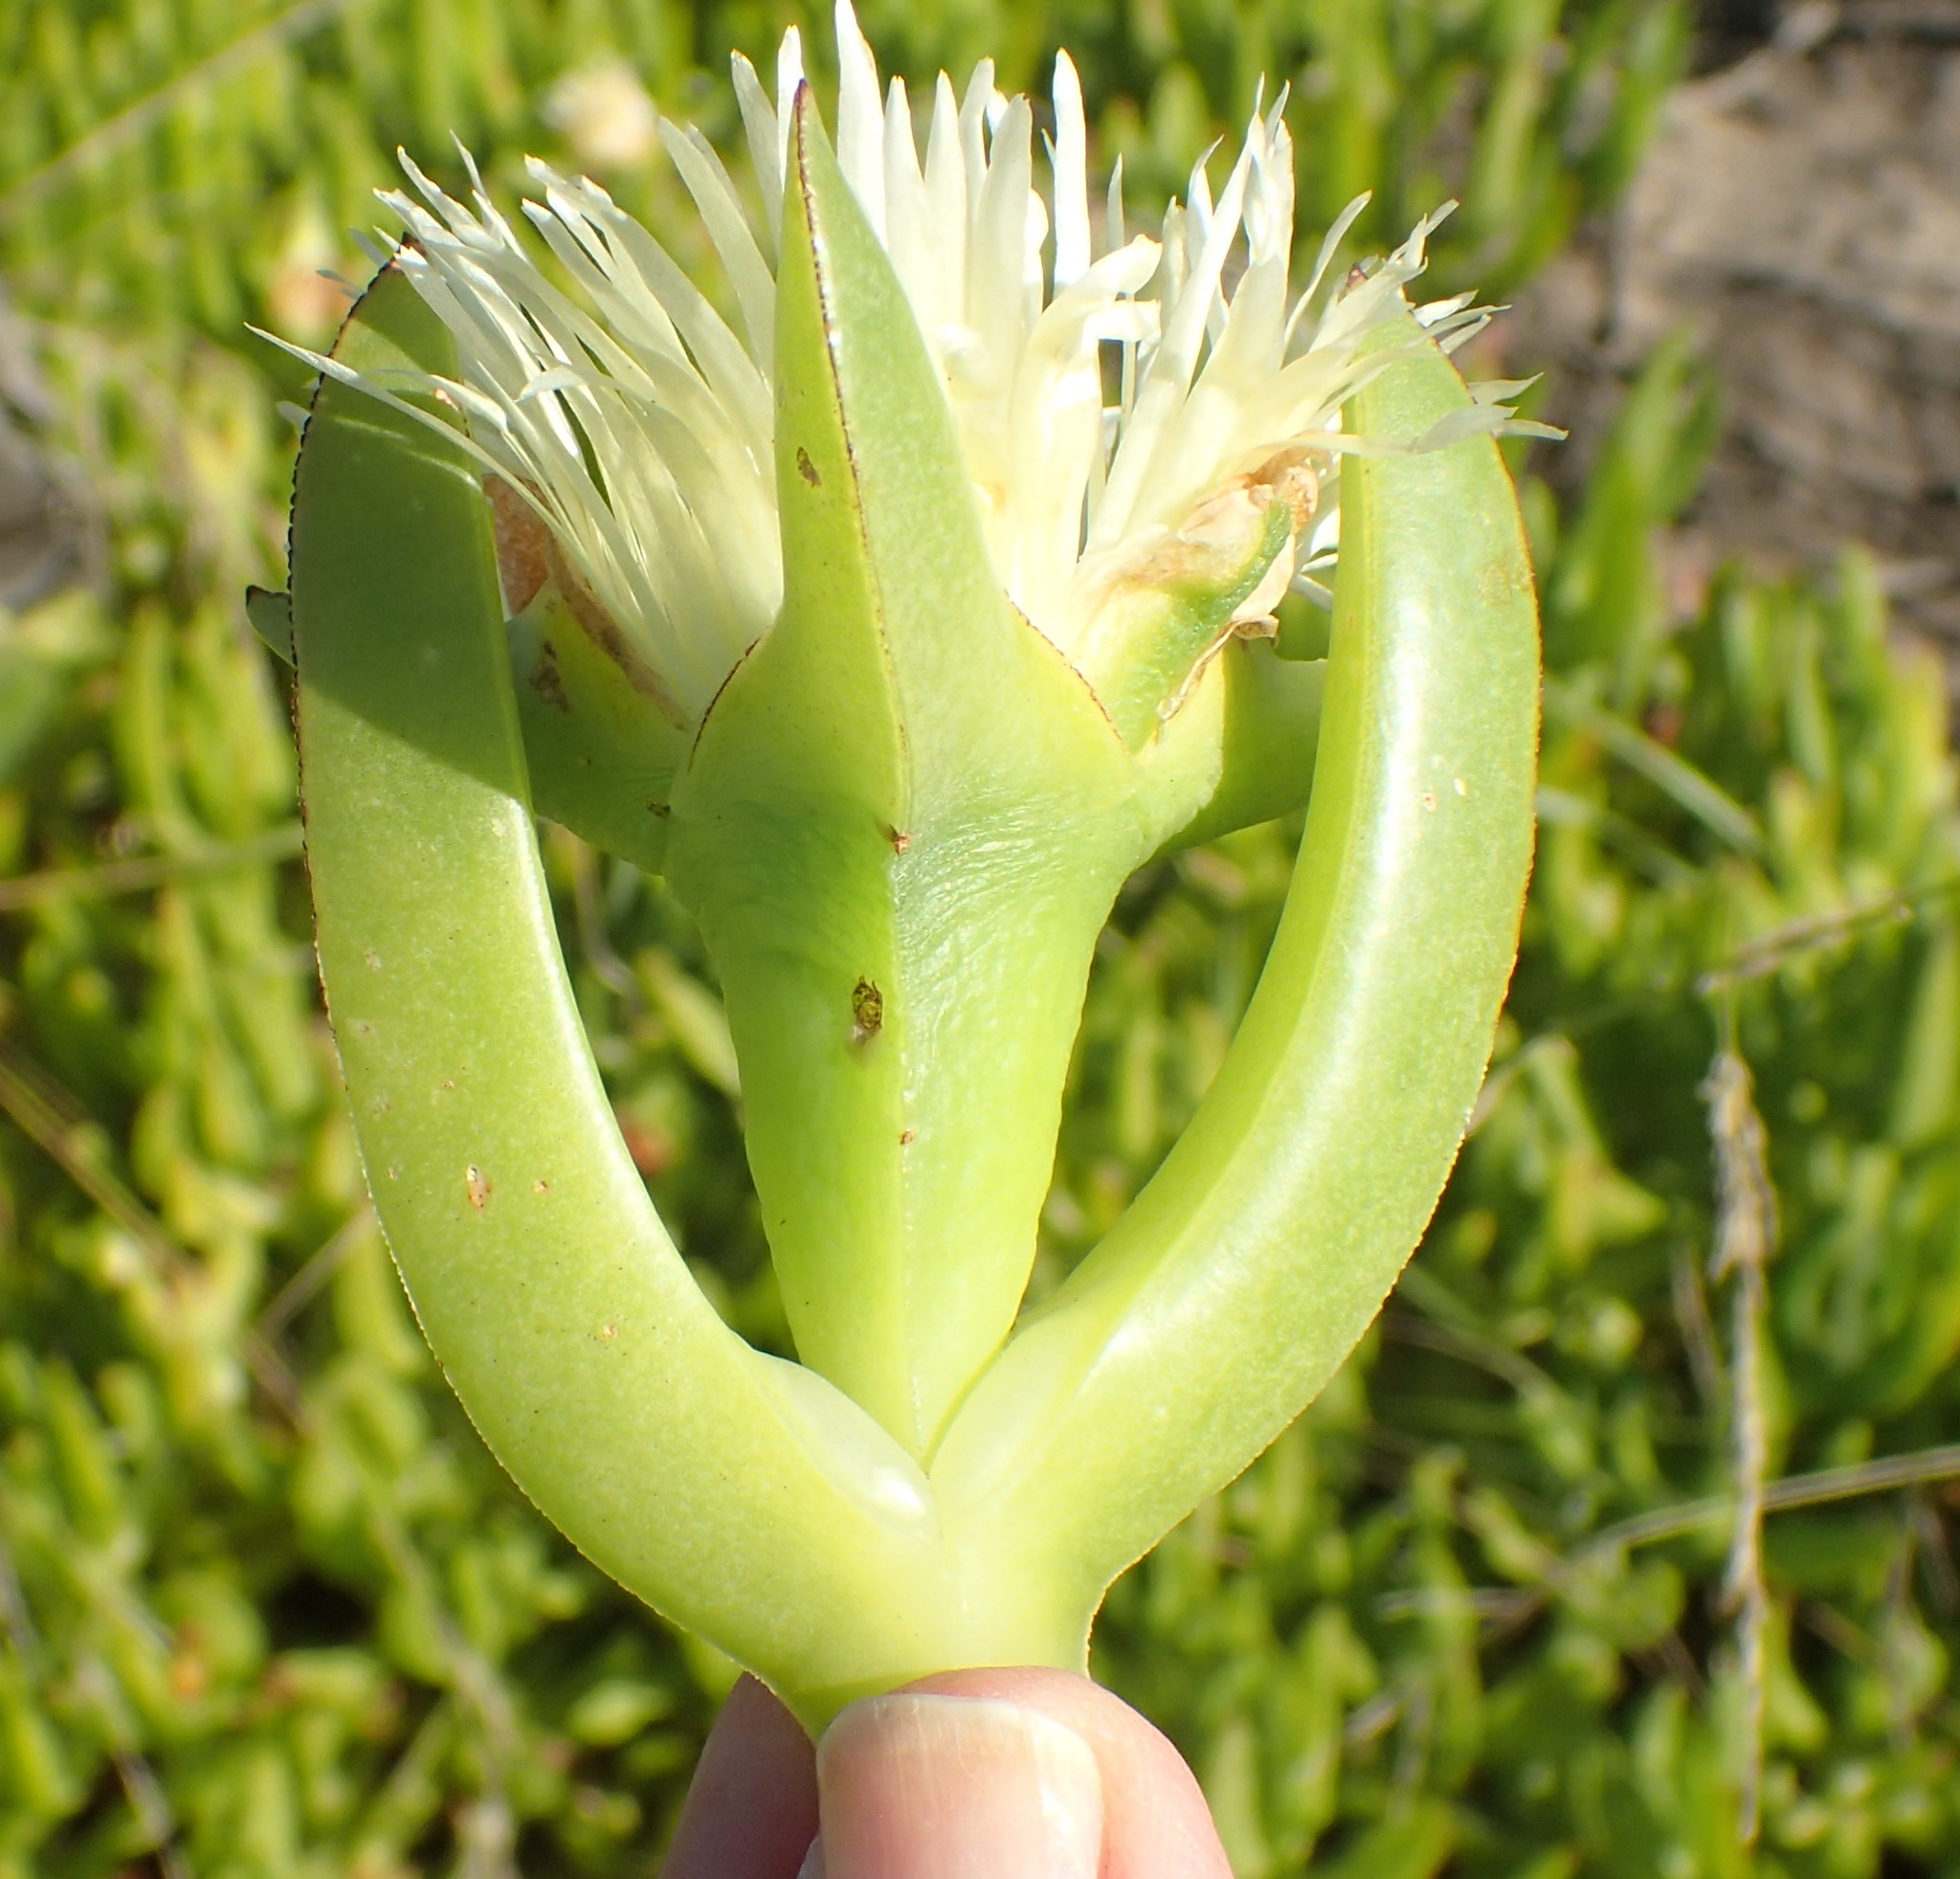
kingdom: Plantae
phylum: Tracheophyta
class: Magnoliopsida
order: Caryophyllales
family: Aizoaceae
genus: Carpobrotus
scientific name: Carpobrotus edulis
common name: Hottentot-fig
